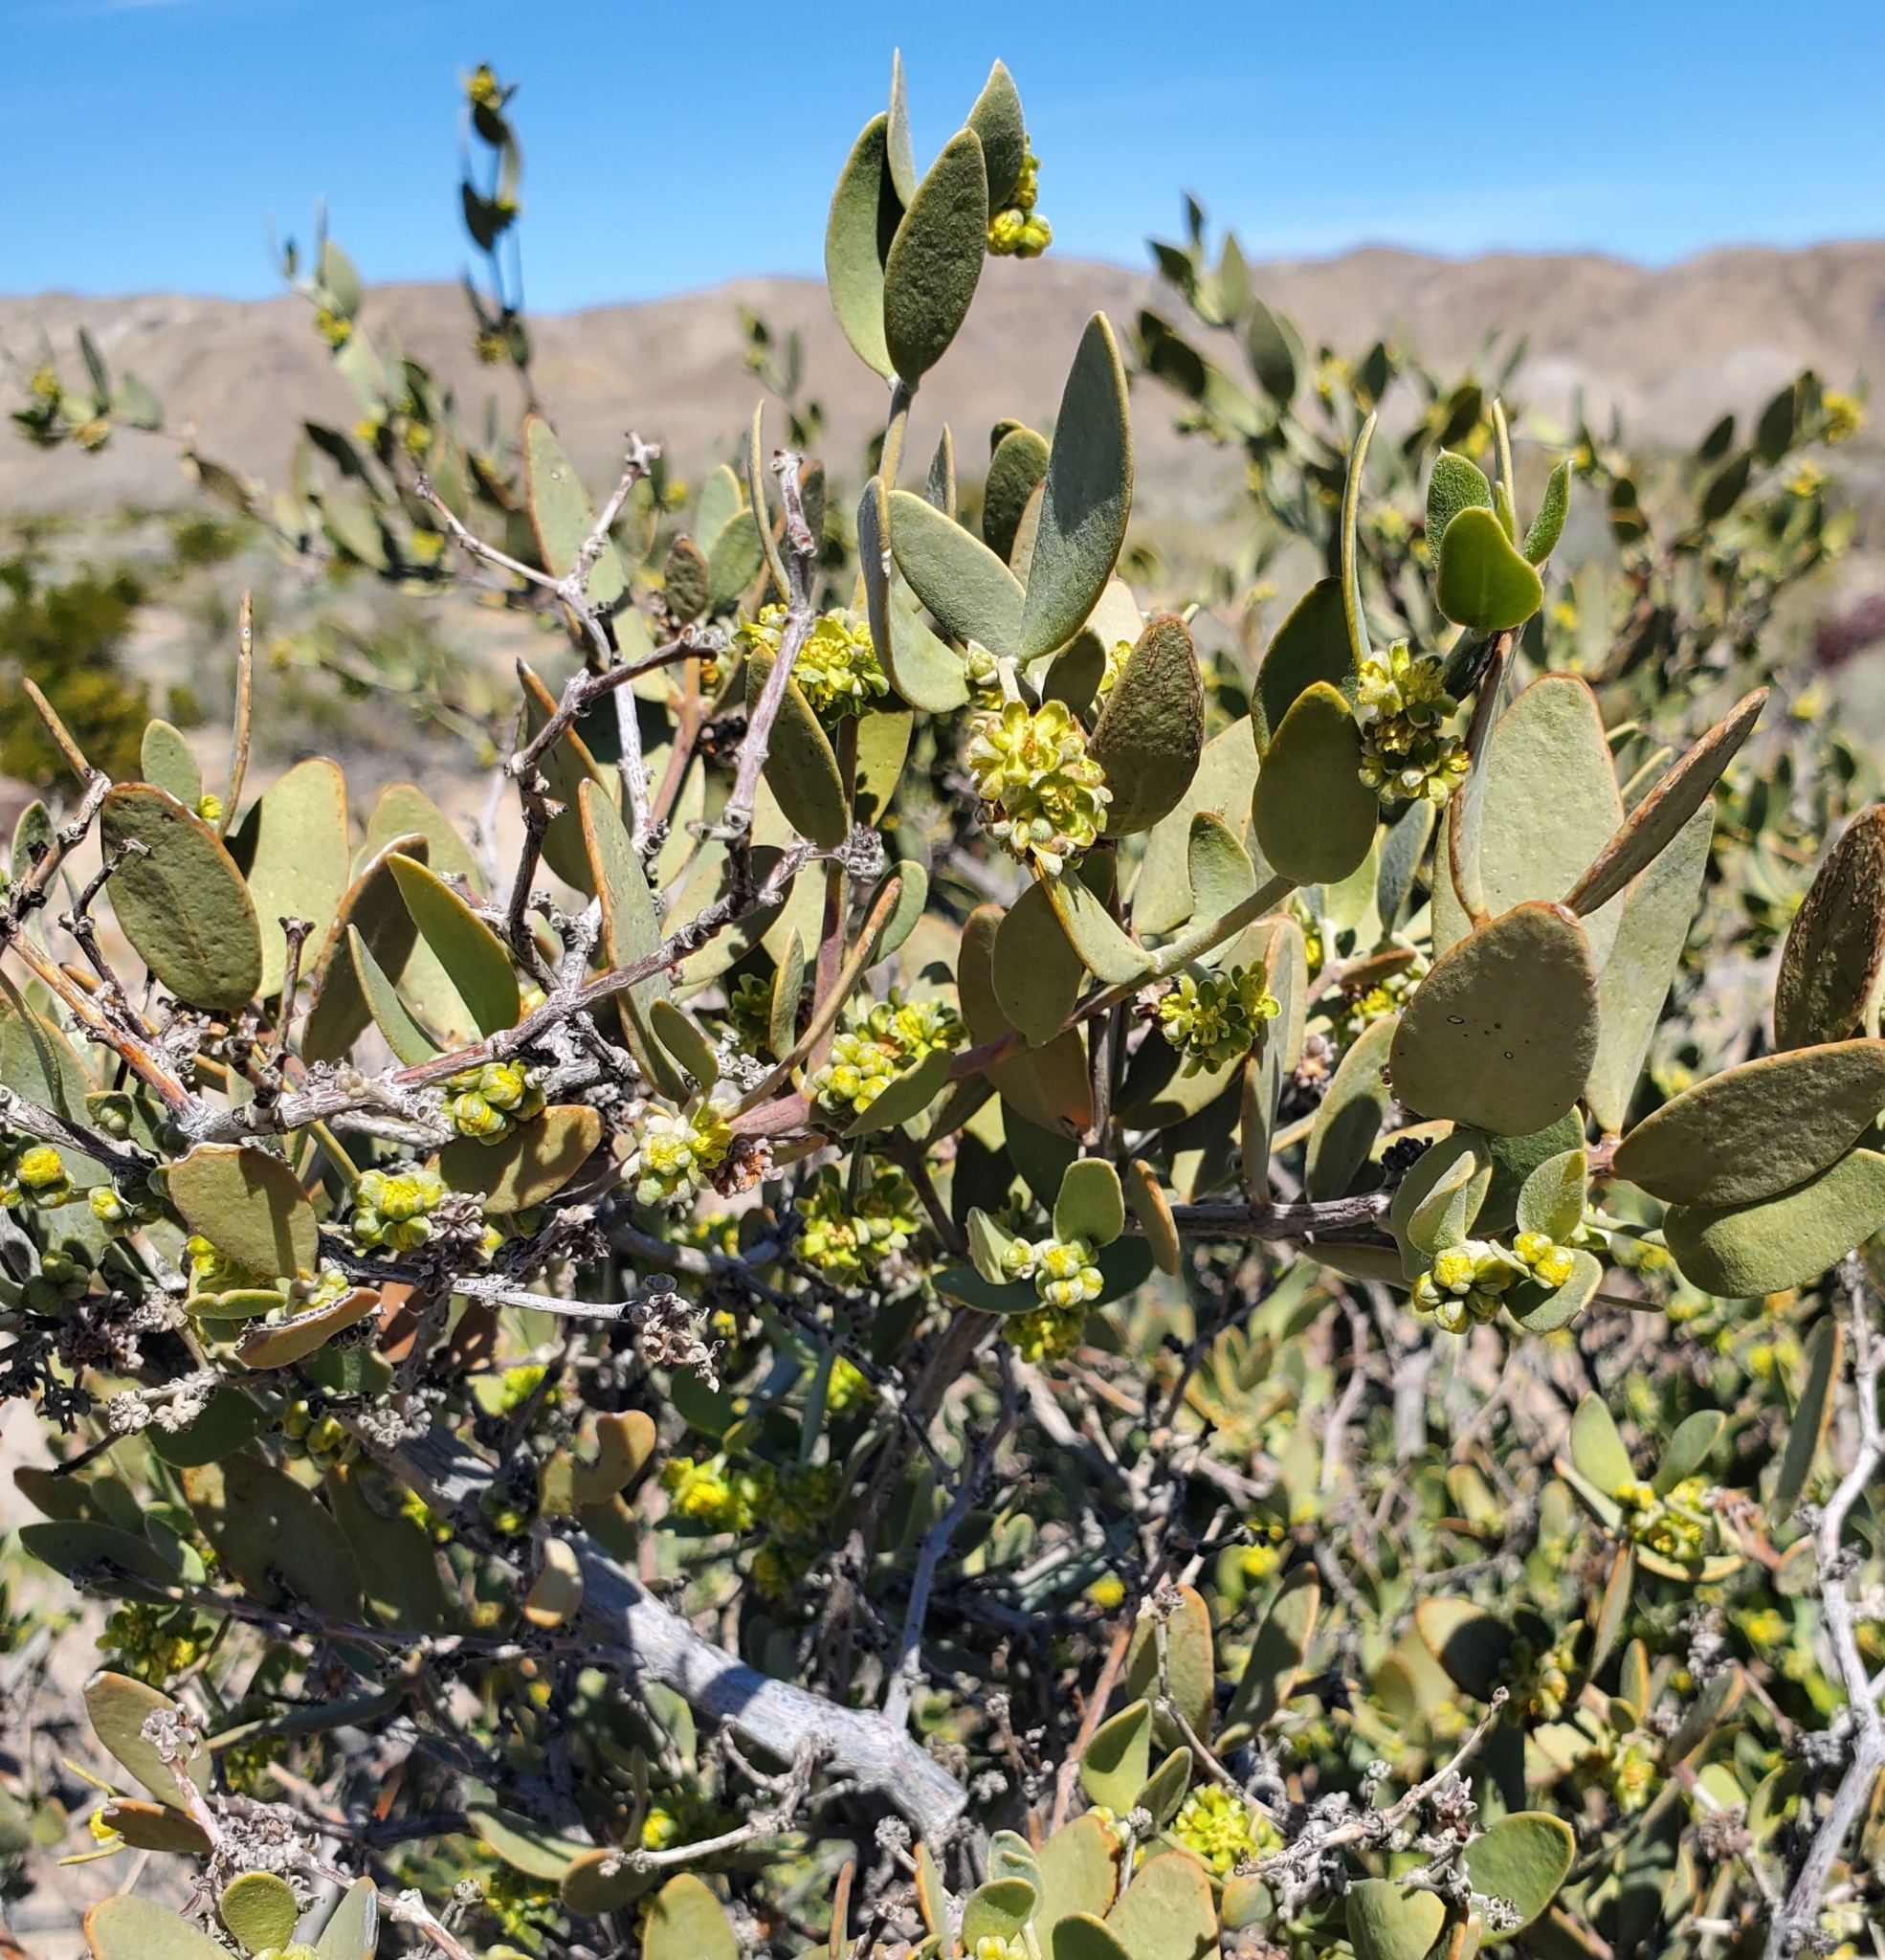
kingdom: Plantae
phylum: Tracheophyta
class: Magnoliopsida
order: Caryophyllales
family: Simmondsiaceae
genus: Simmondsia
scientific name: Simmondsia chinensis
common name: Jojoba
